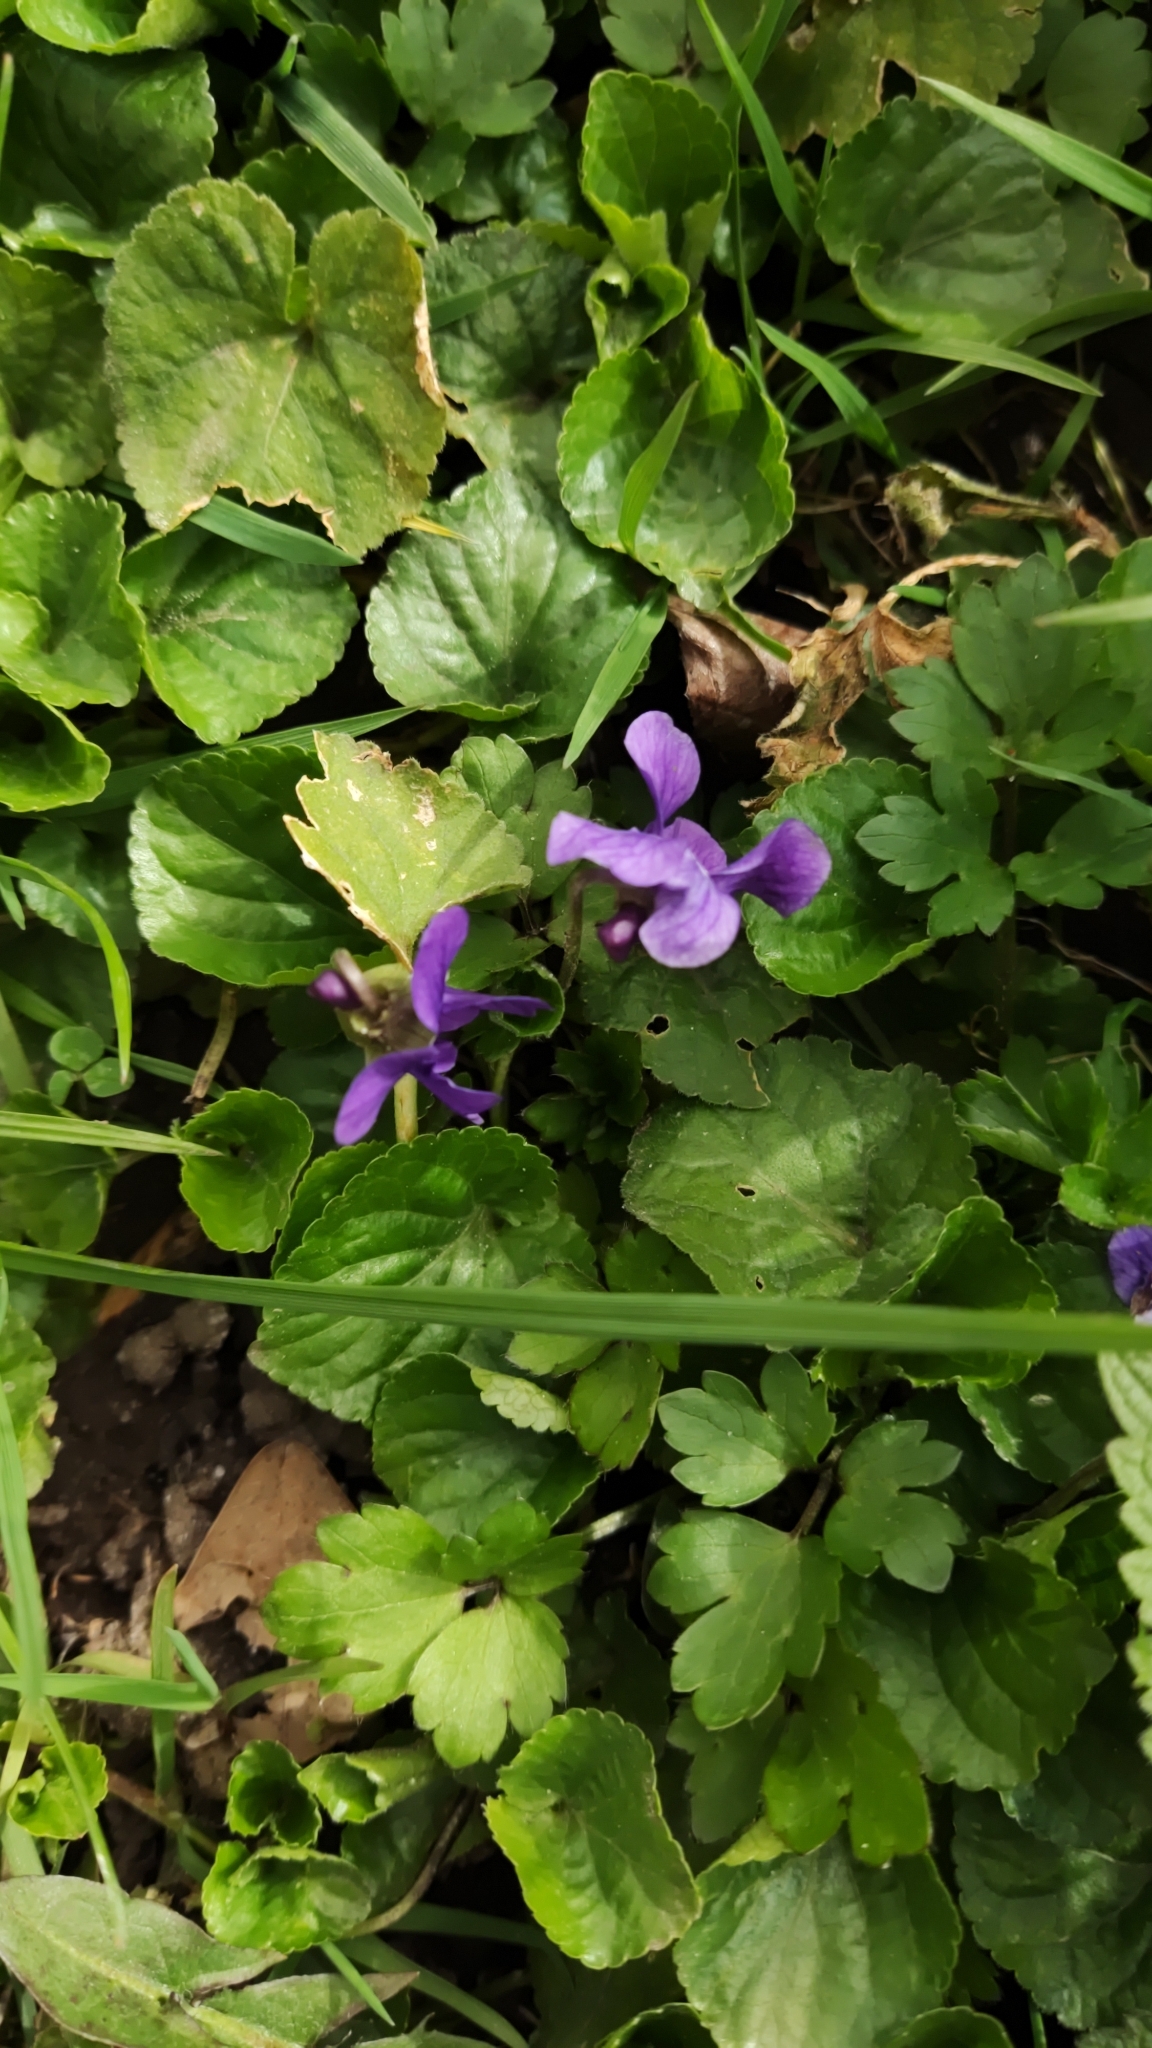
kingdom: Plantae
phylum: Tracheophyta
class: Magnoliopsida
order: Malpighiales
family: Violaceae
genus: Viola
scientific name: Viola odorata
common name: Sweet violet
